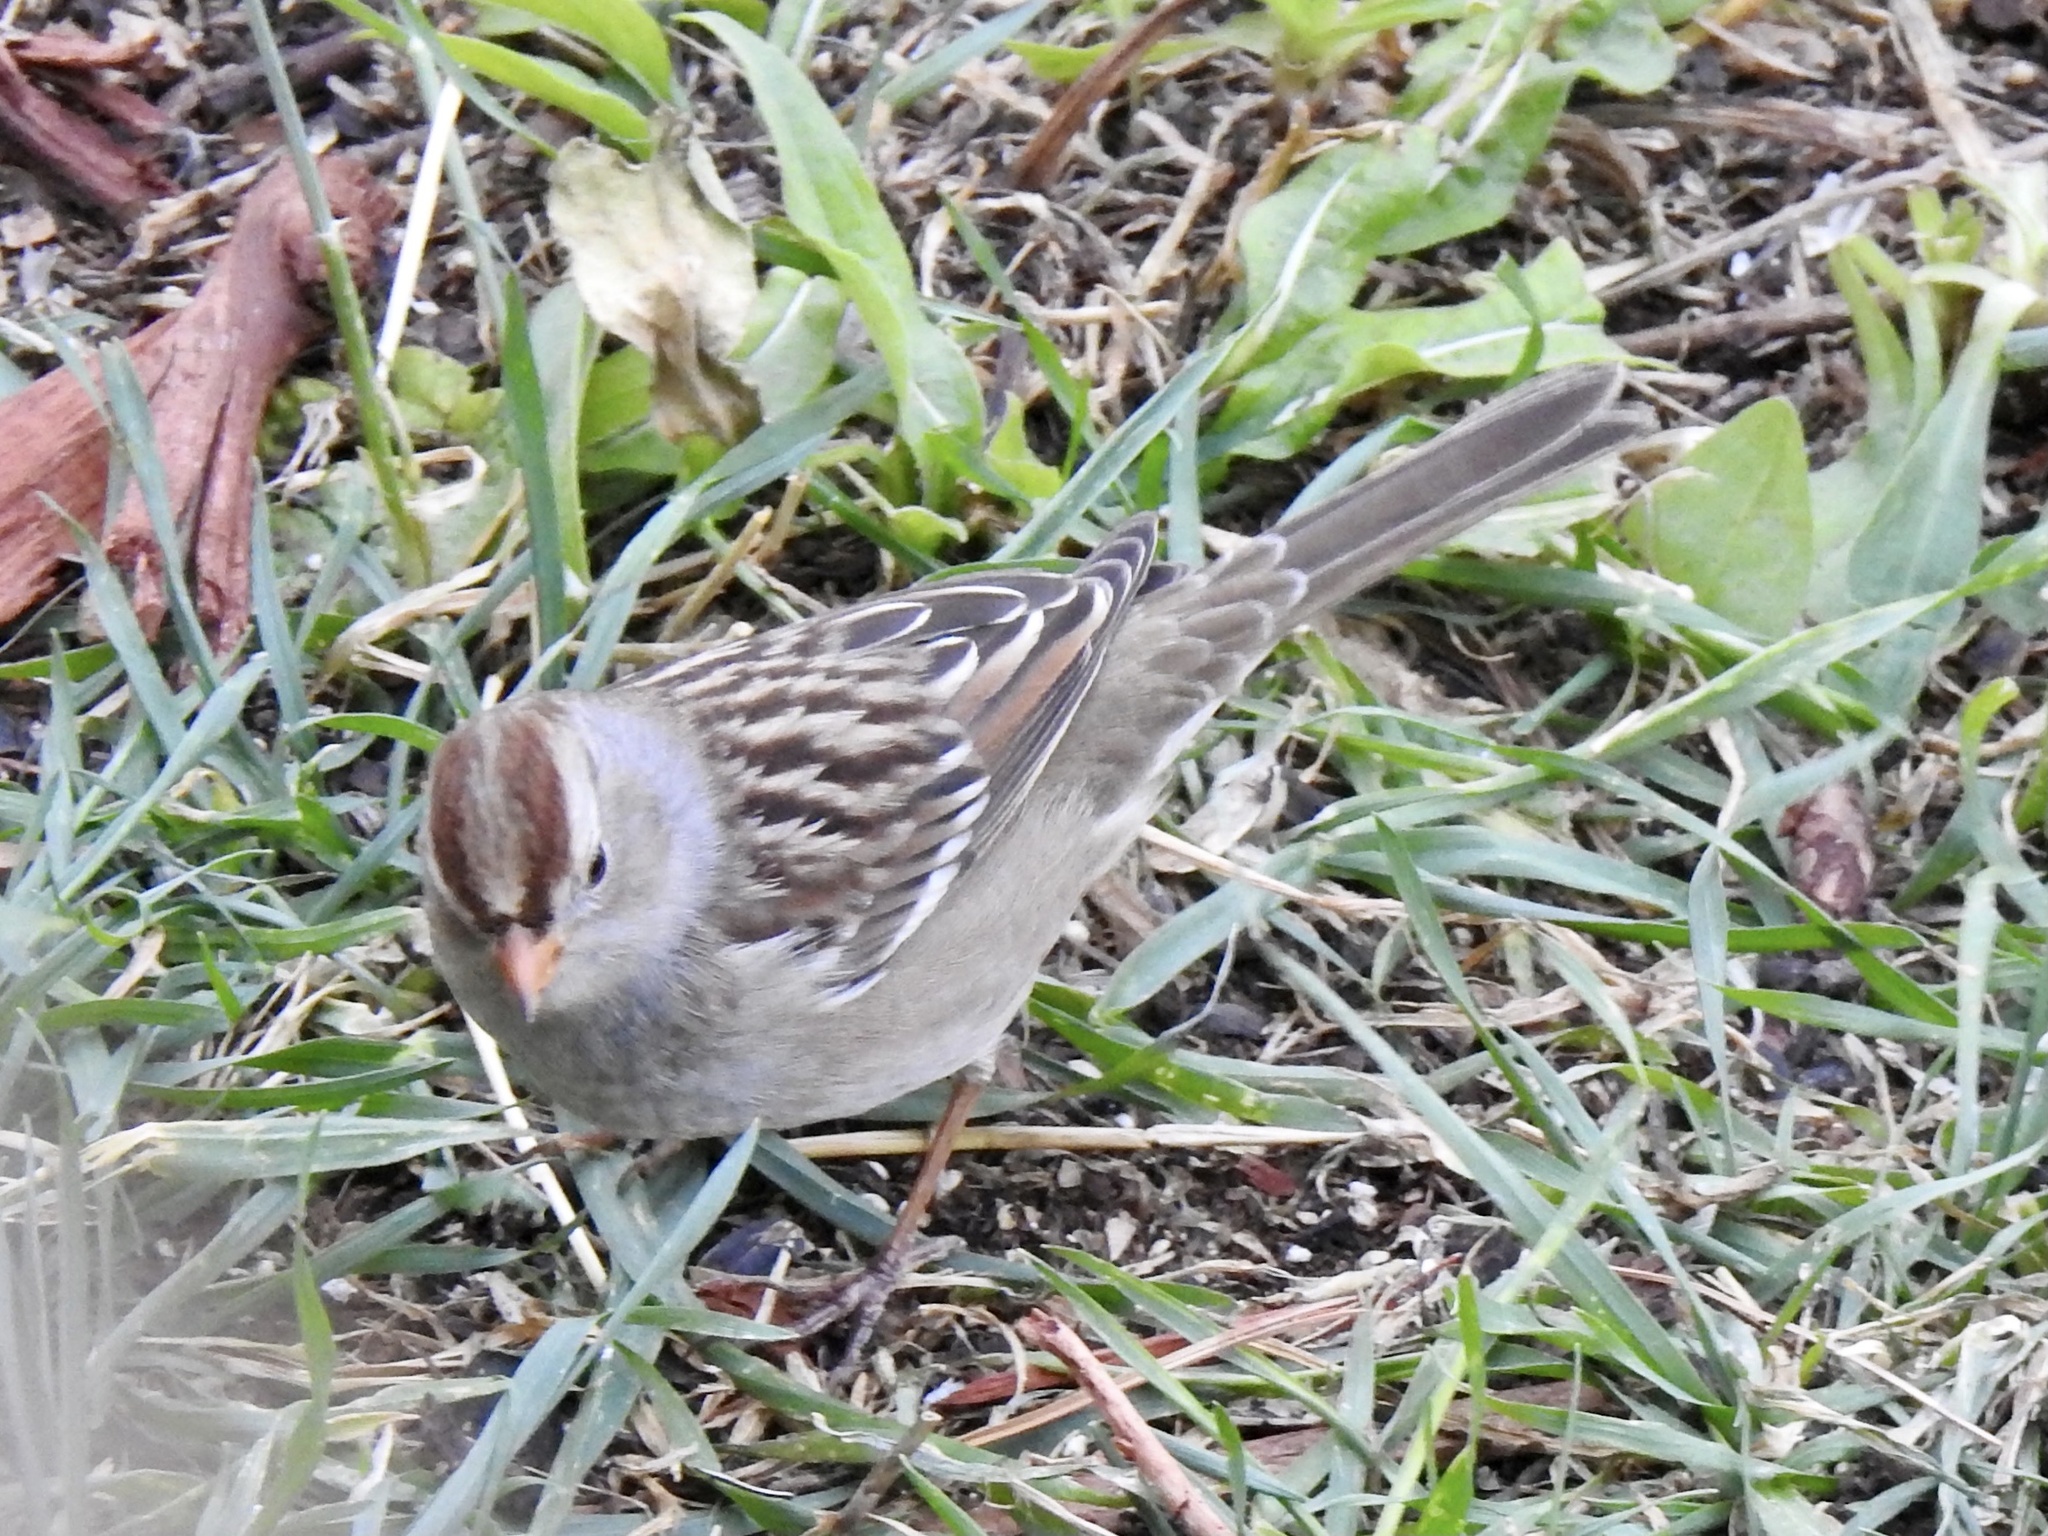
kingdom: Animalia
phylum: Chordata
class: Aves
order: Passeriformes
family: Passerellidae
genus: Zonotrichia
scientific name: Zonotrichia leucophrys
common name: White-crowned sparrow
